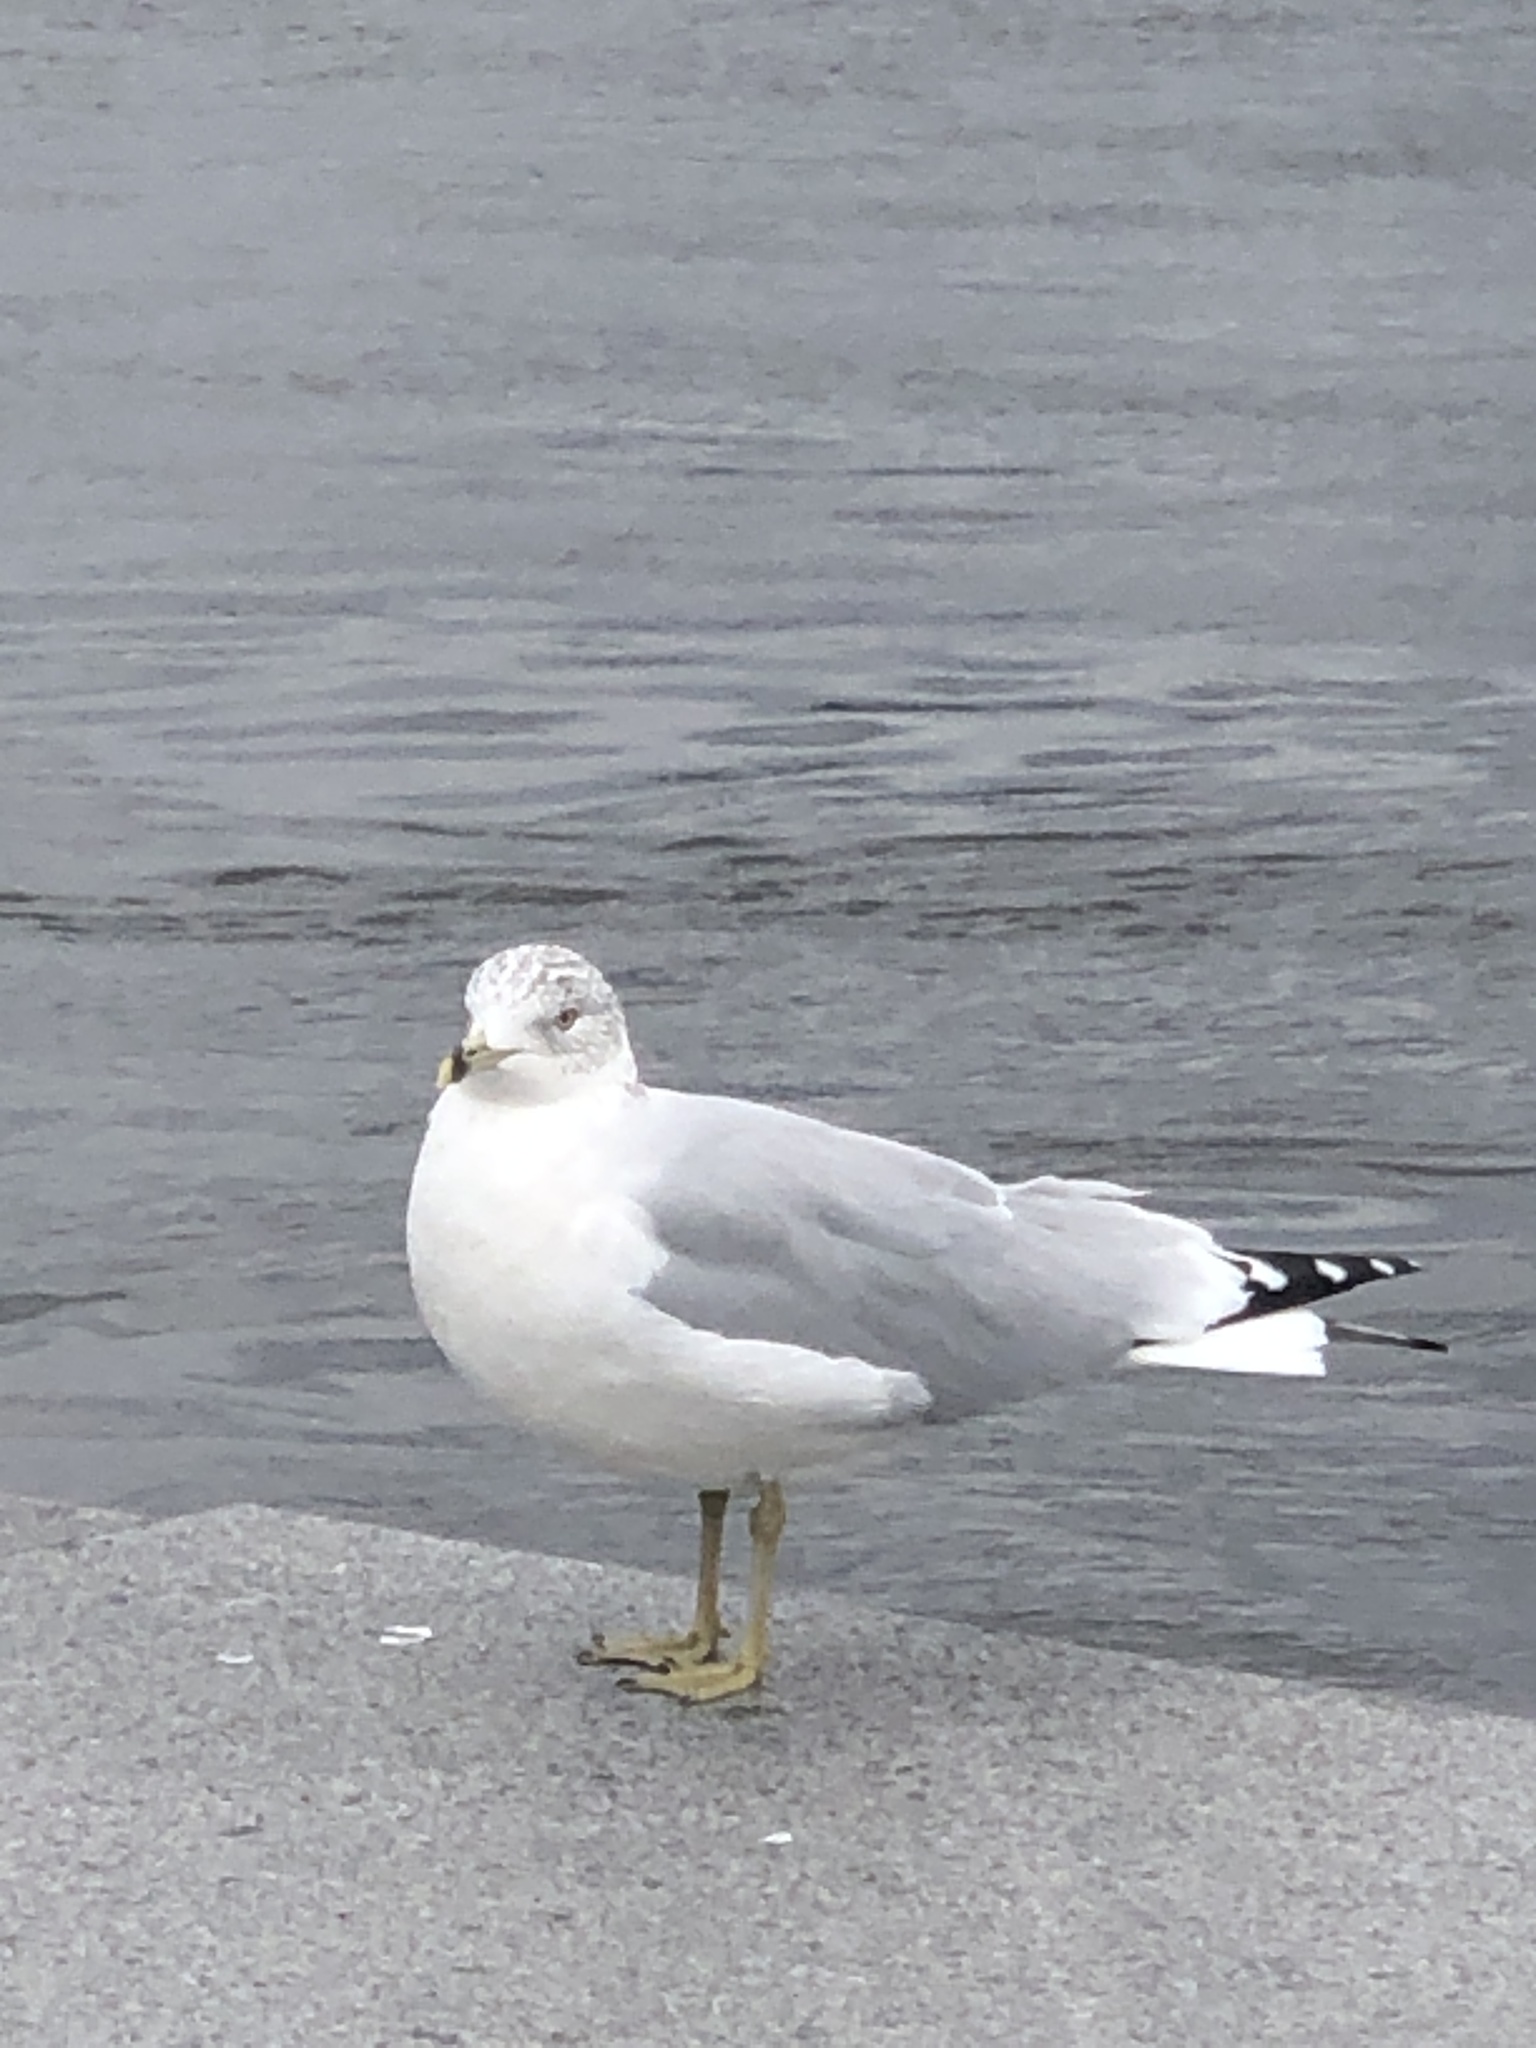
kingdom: Animalia
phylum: Chordata
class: Aves
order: Charadriiformes
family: Laridae
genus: Larus
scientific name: Larus delawarensis
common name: Ring-billed gull
